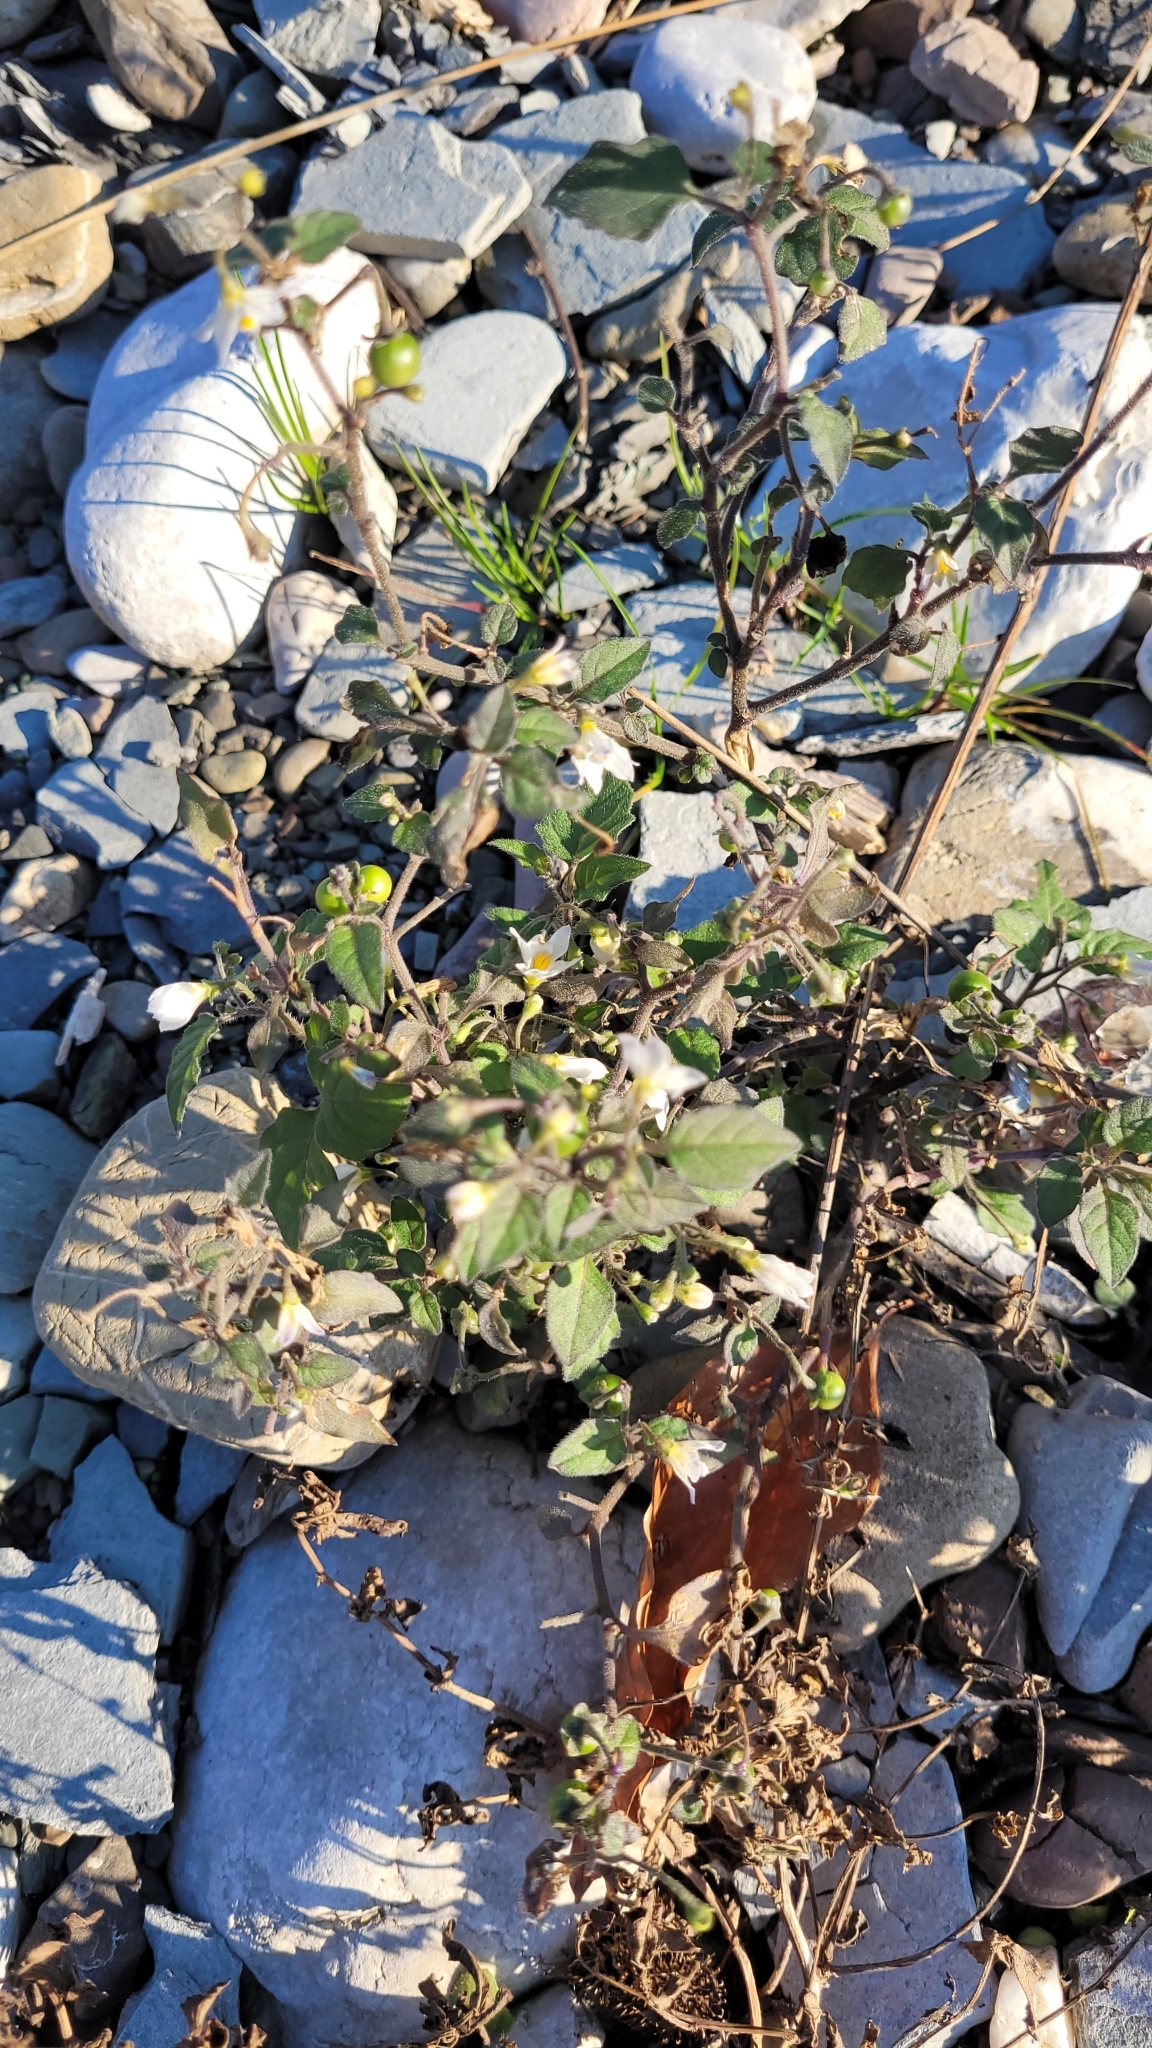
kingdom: Plantae
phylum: Tracheophyta
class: Magnoliopsida
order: Solanales
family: Solanaceae
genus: Solanum
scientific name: Solanum nigrum
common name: Black nightshade
